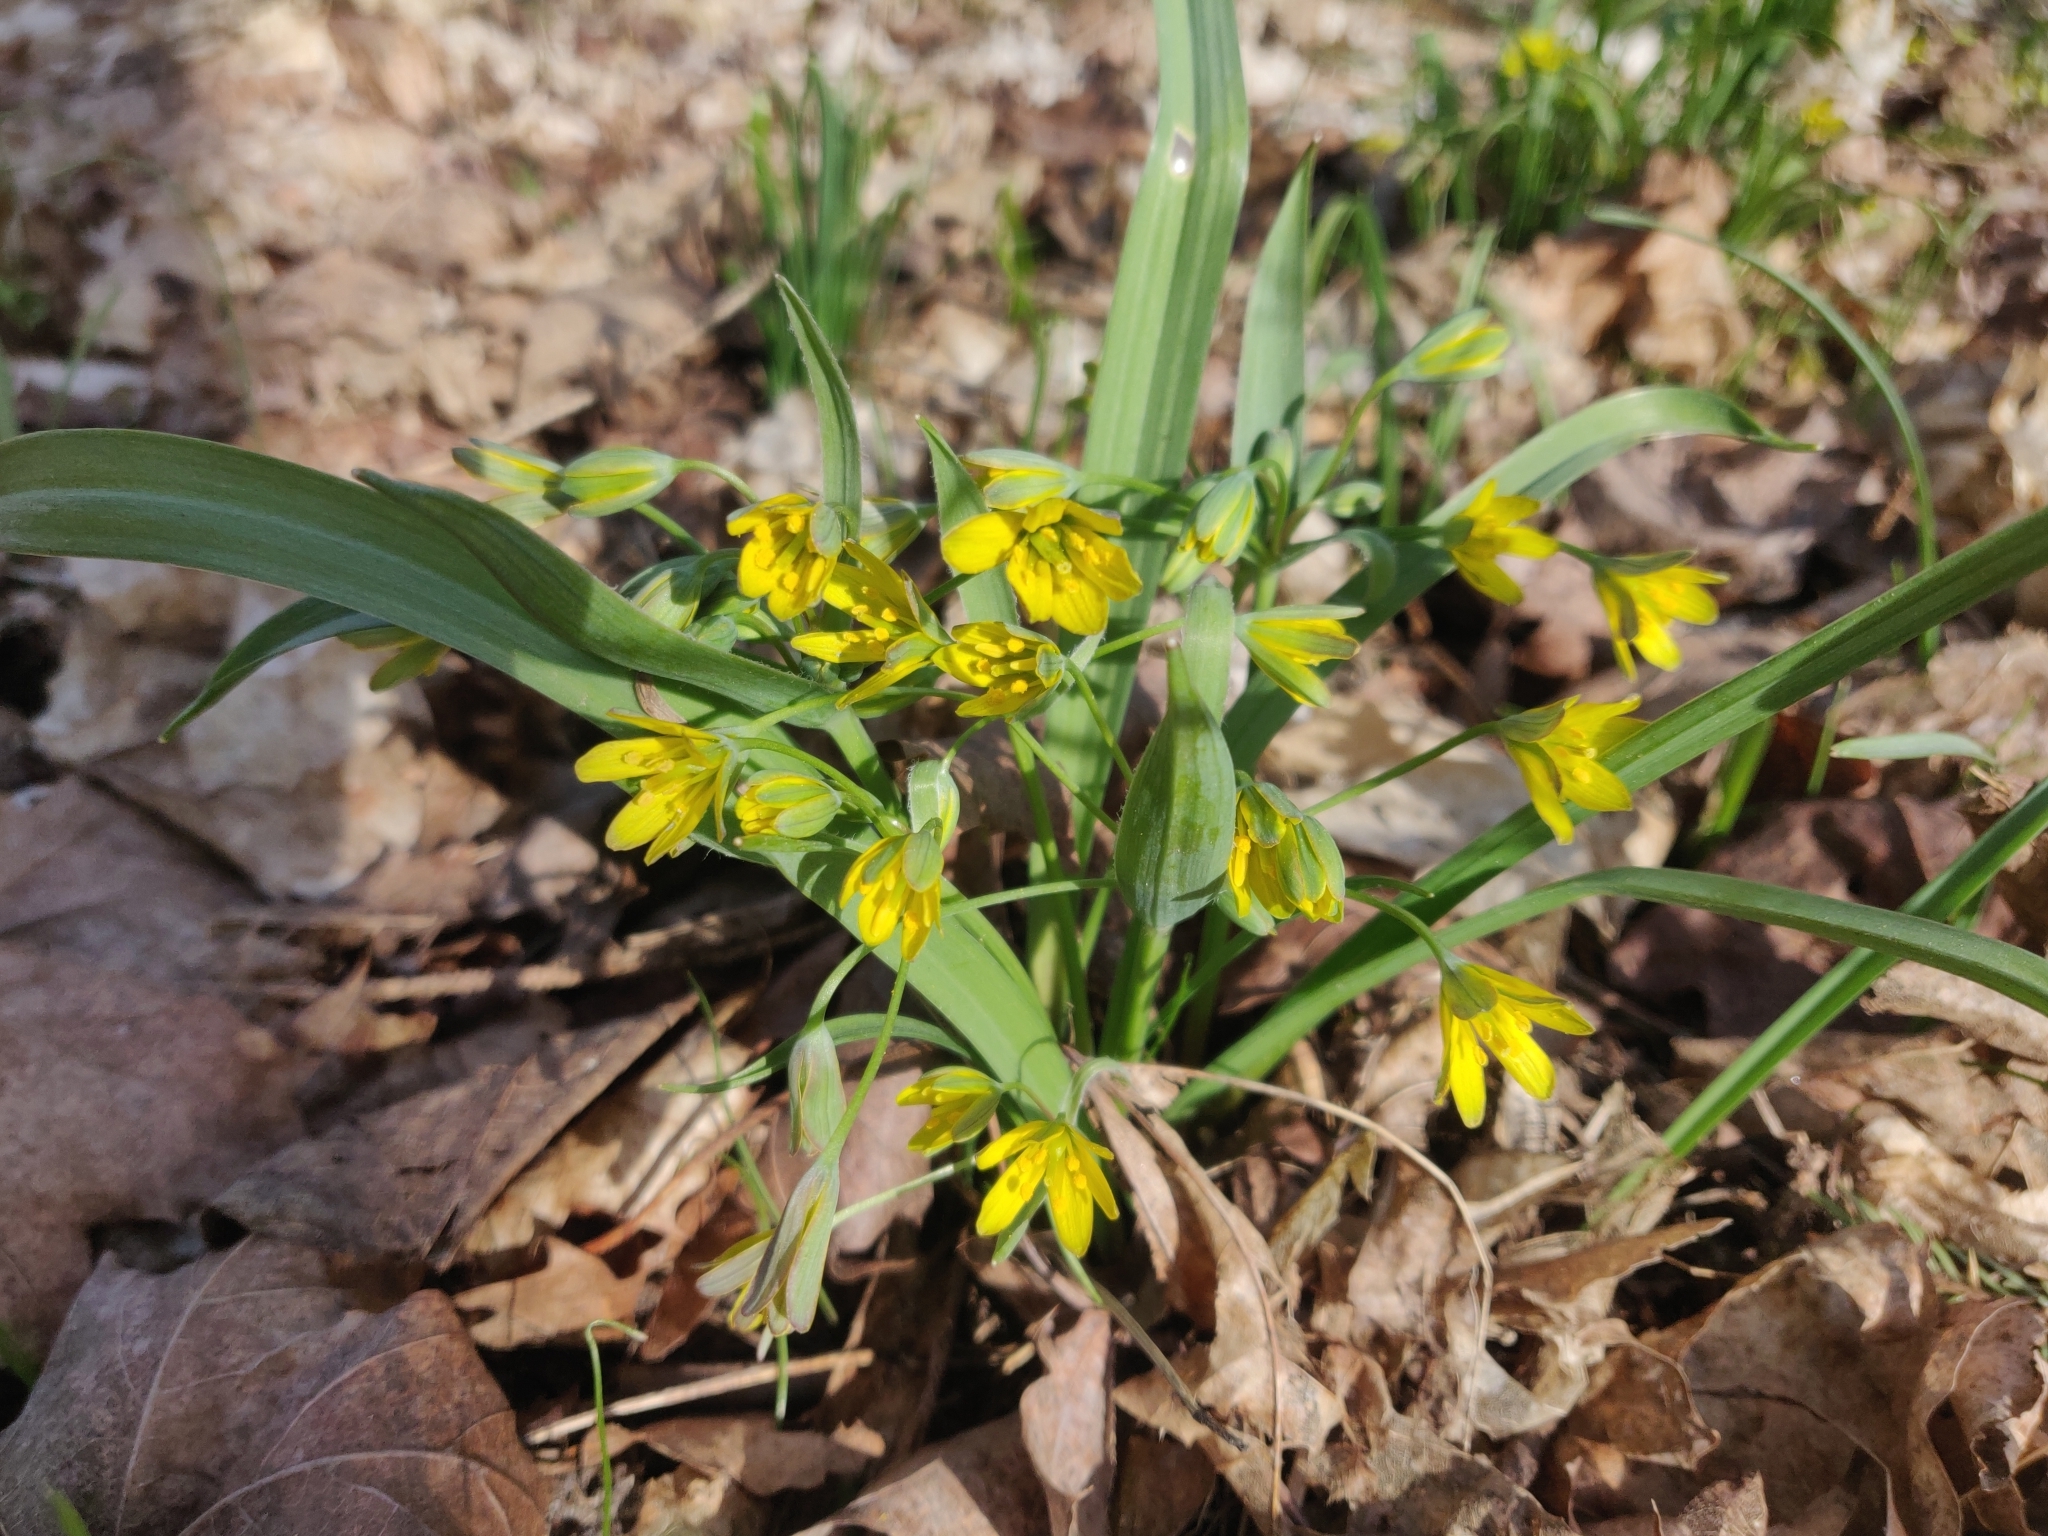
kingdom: Plantae
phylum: Tracheophyta
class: Liliopsida
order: Liliales
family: Liliaceae
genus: Gagea
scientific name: Gagea lutea
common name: Yellow star-of-bethlehem
